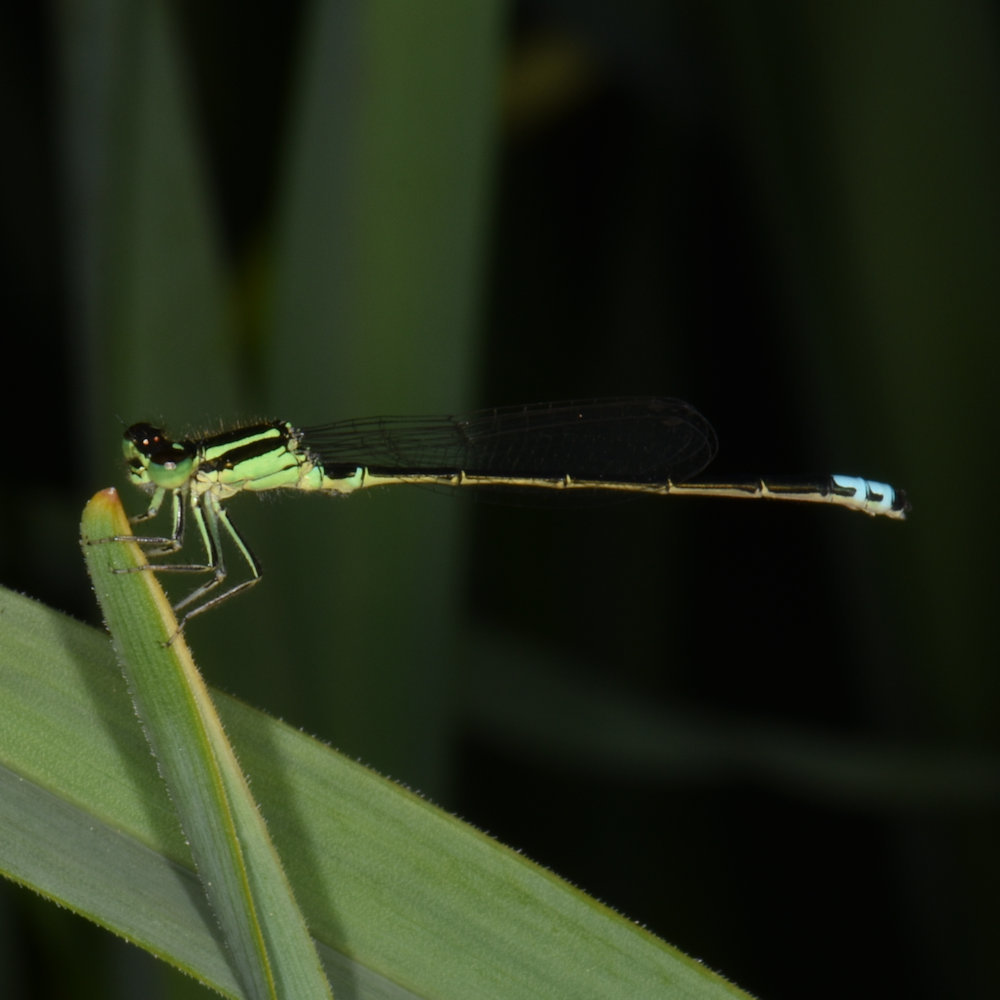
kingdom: Animalia
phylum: Arthropoda
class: Insecta
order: Odonata
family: Coenagrionidae
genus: Ischnura
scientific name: Ischnura verticalis
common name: Eastern forktail
